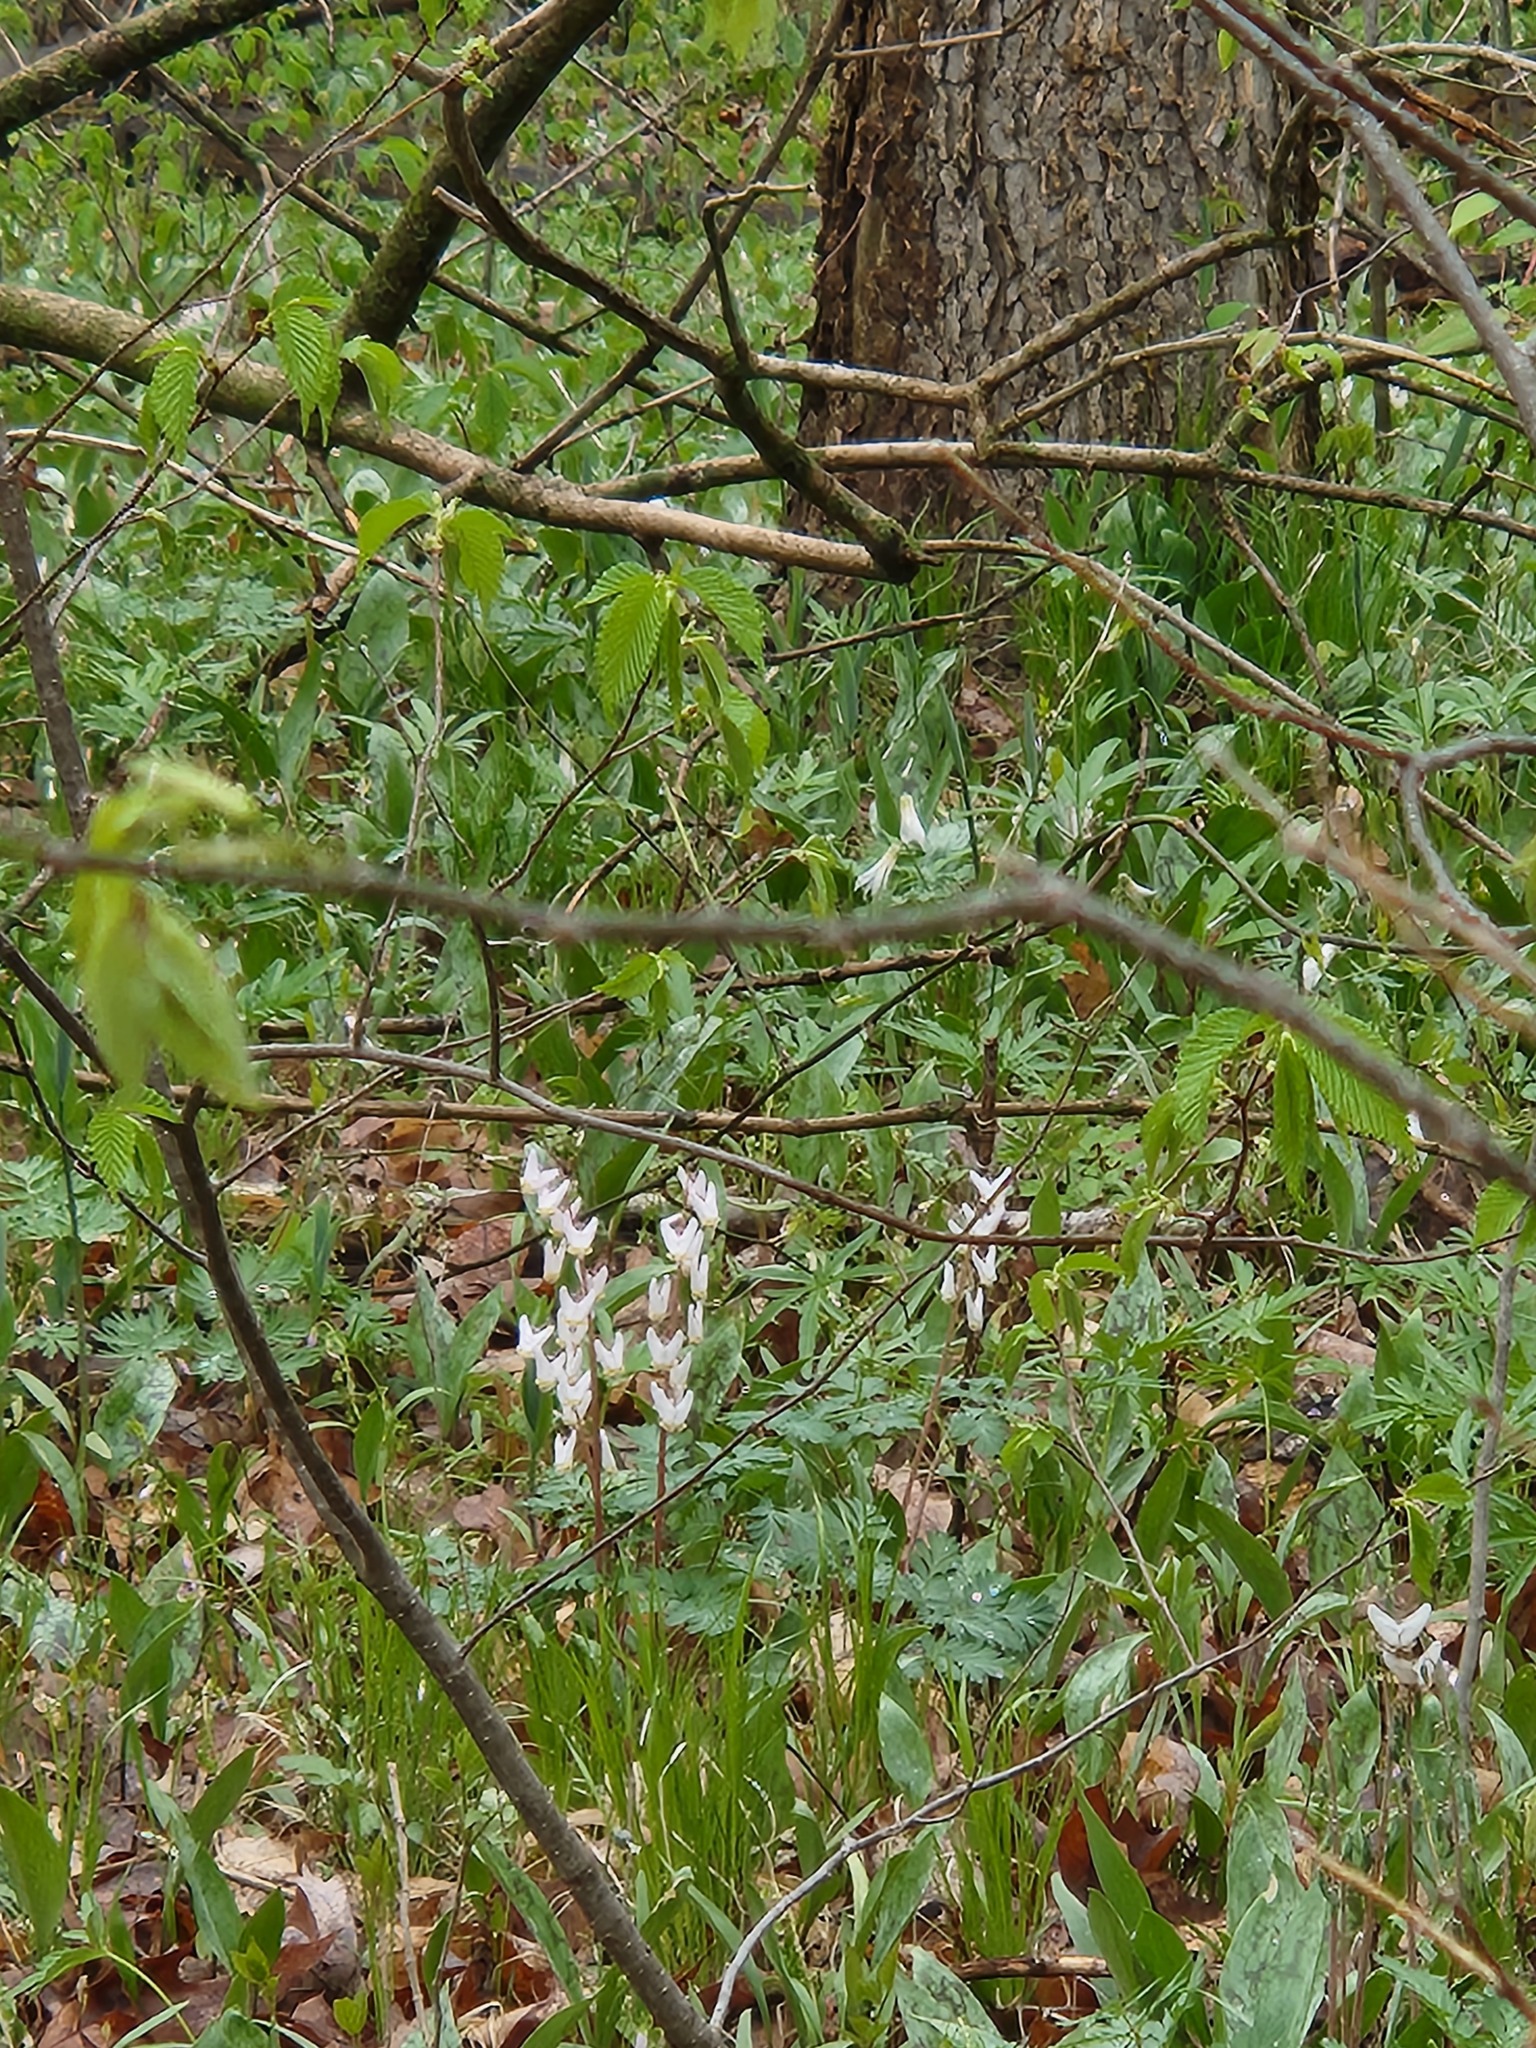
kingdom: Plantae
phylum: Tracheophyta
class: Magnoliopsida
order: Ranunculales
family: Papaveraceae
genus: Dicentra
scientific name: Dicentra cucullaria
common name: Dutchman's breeches
